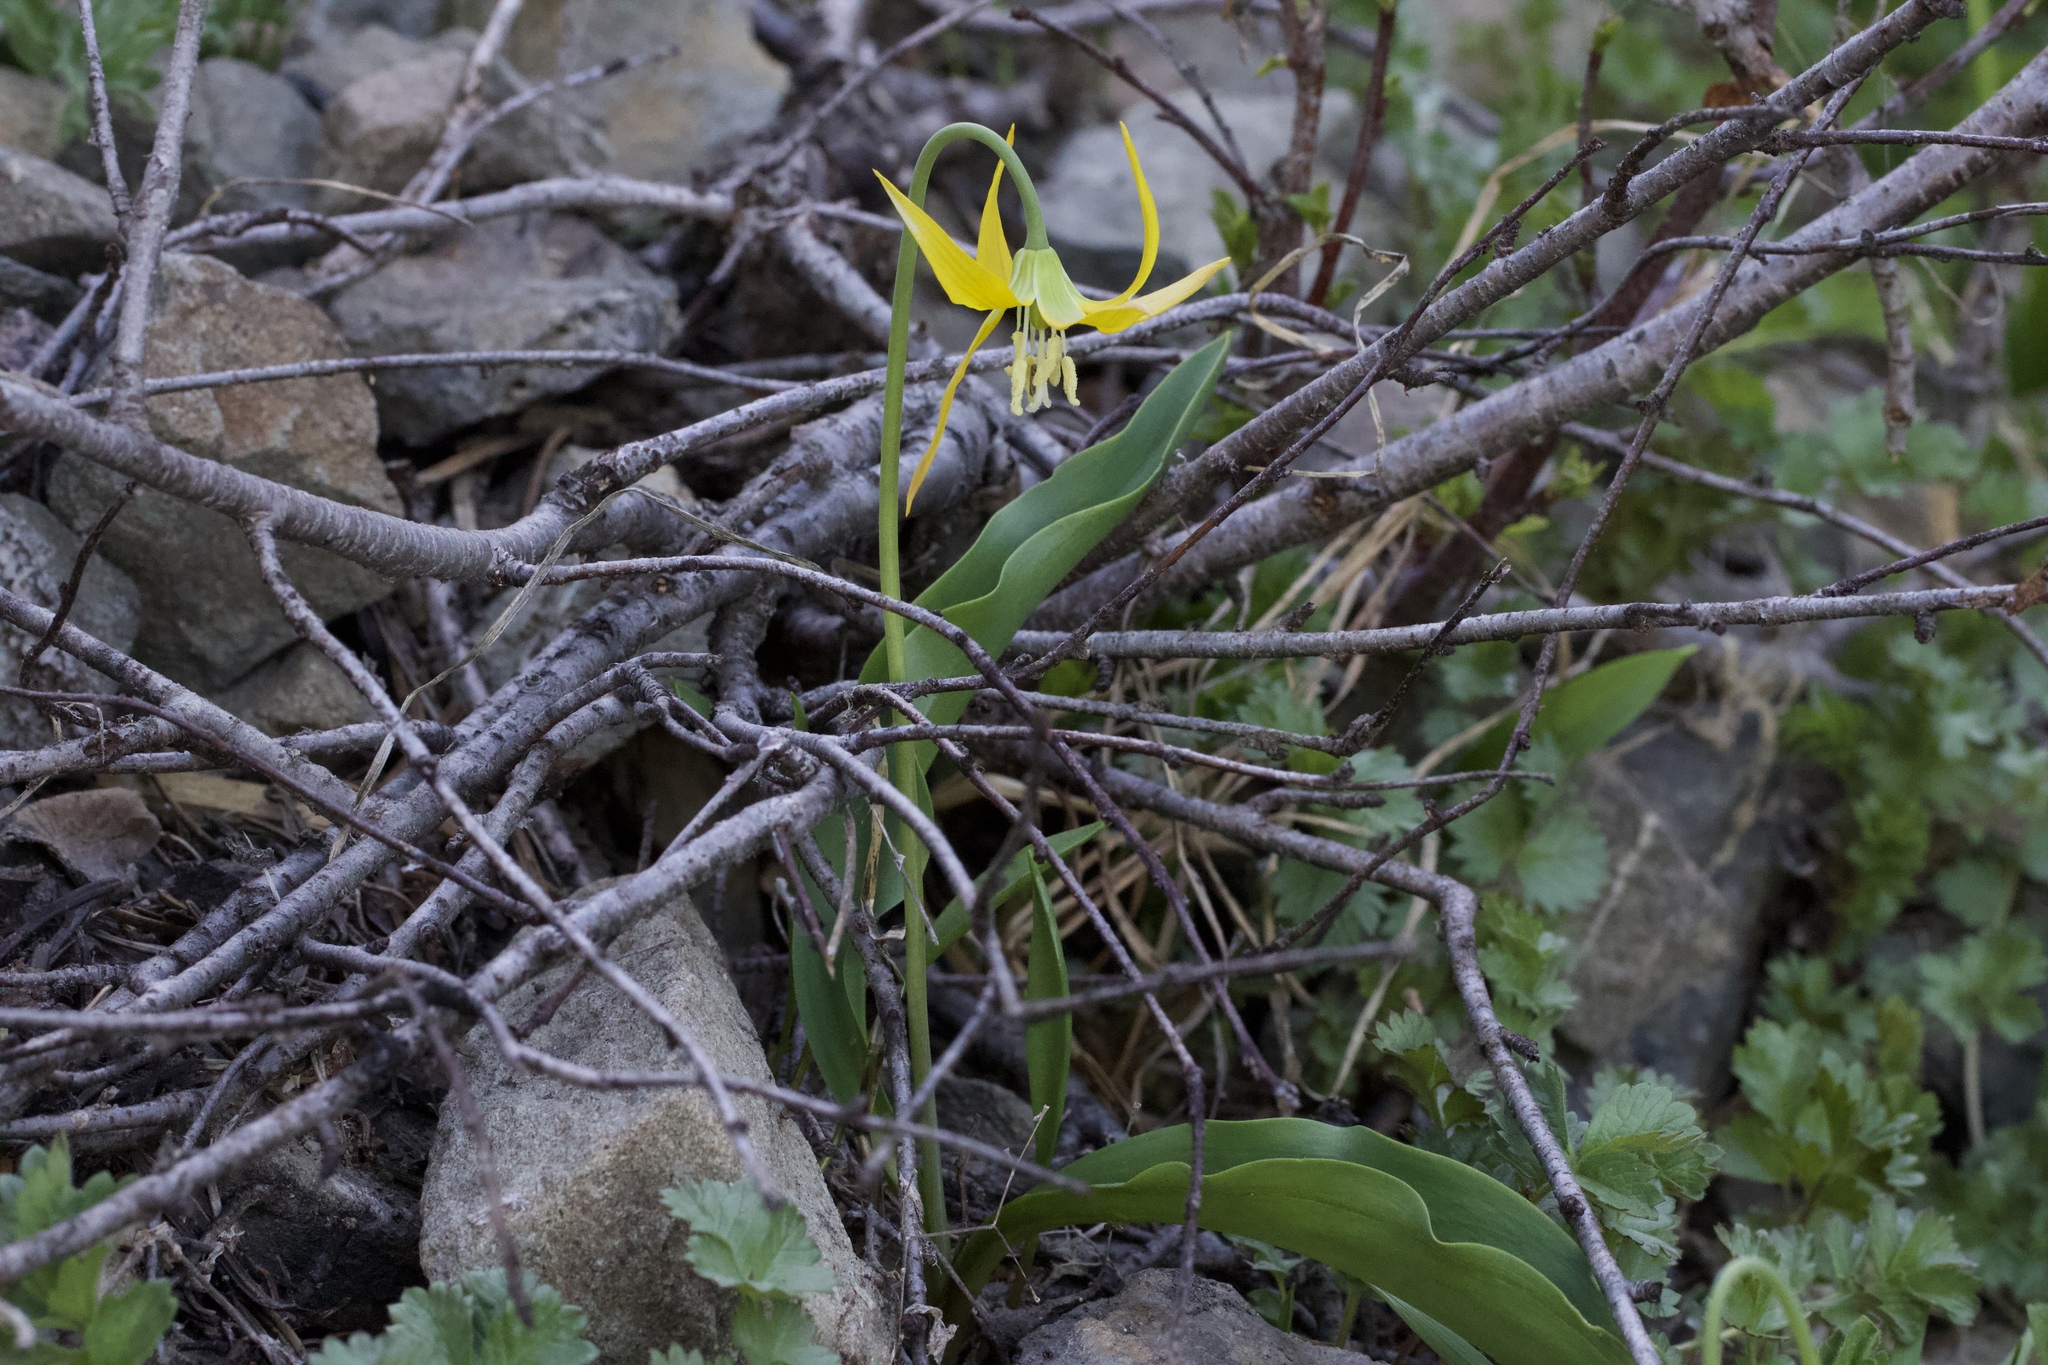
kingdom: Plantae
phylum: Tracheophyta
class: Liliopsida
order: Liliales
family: Liliaceae
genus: Erythronium
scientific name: Erythronium grandiflorum
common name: Avalanche-lily
